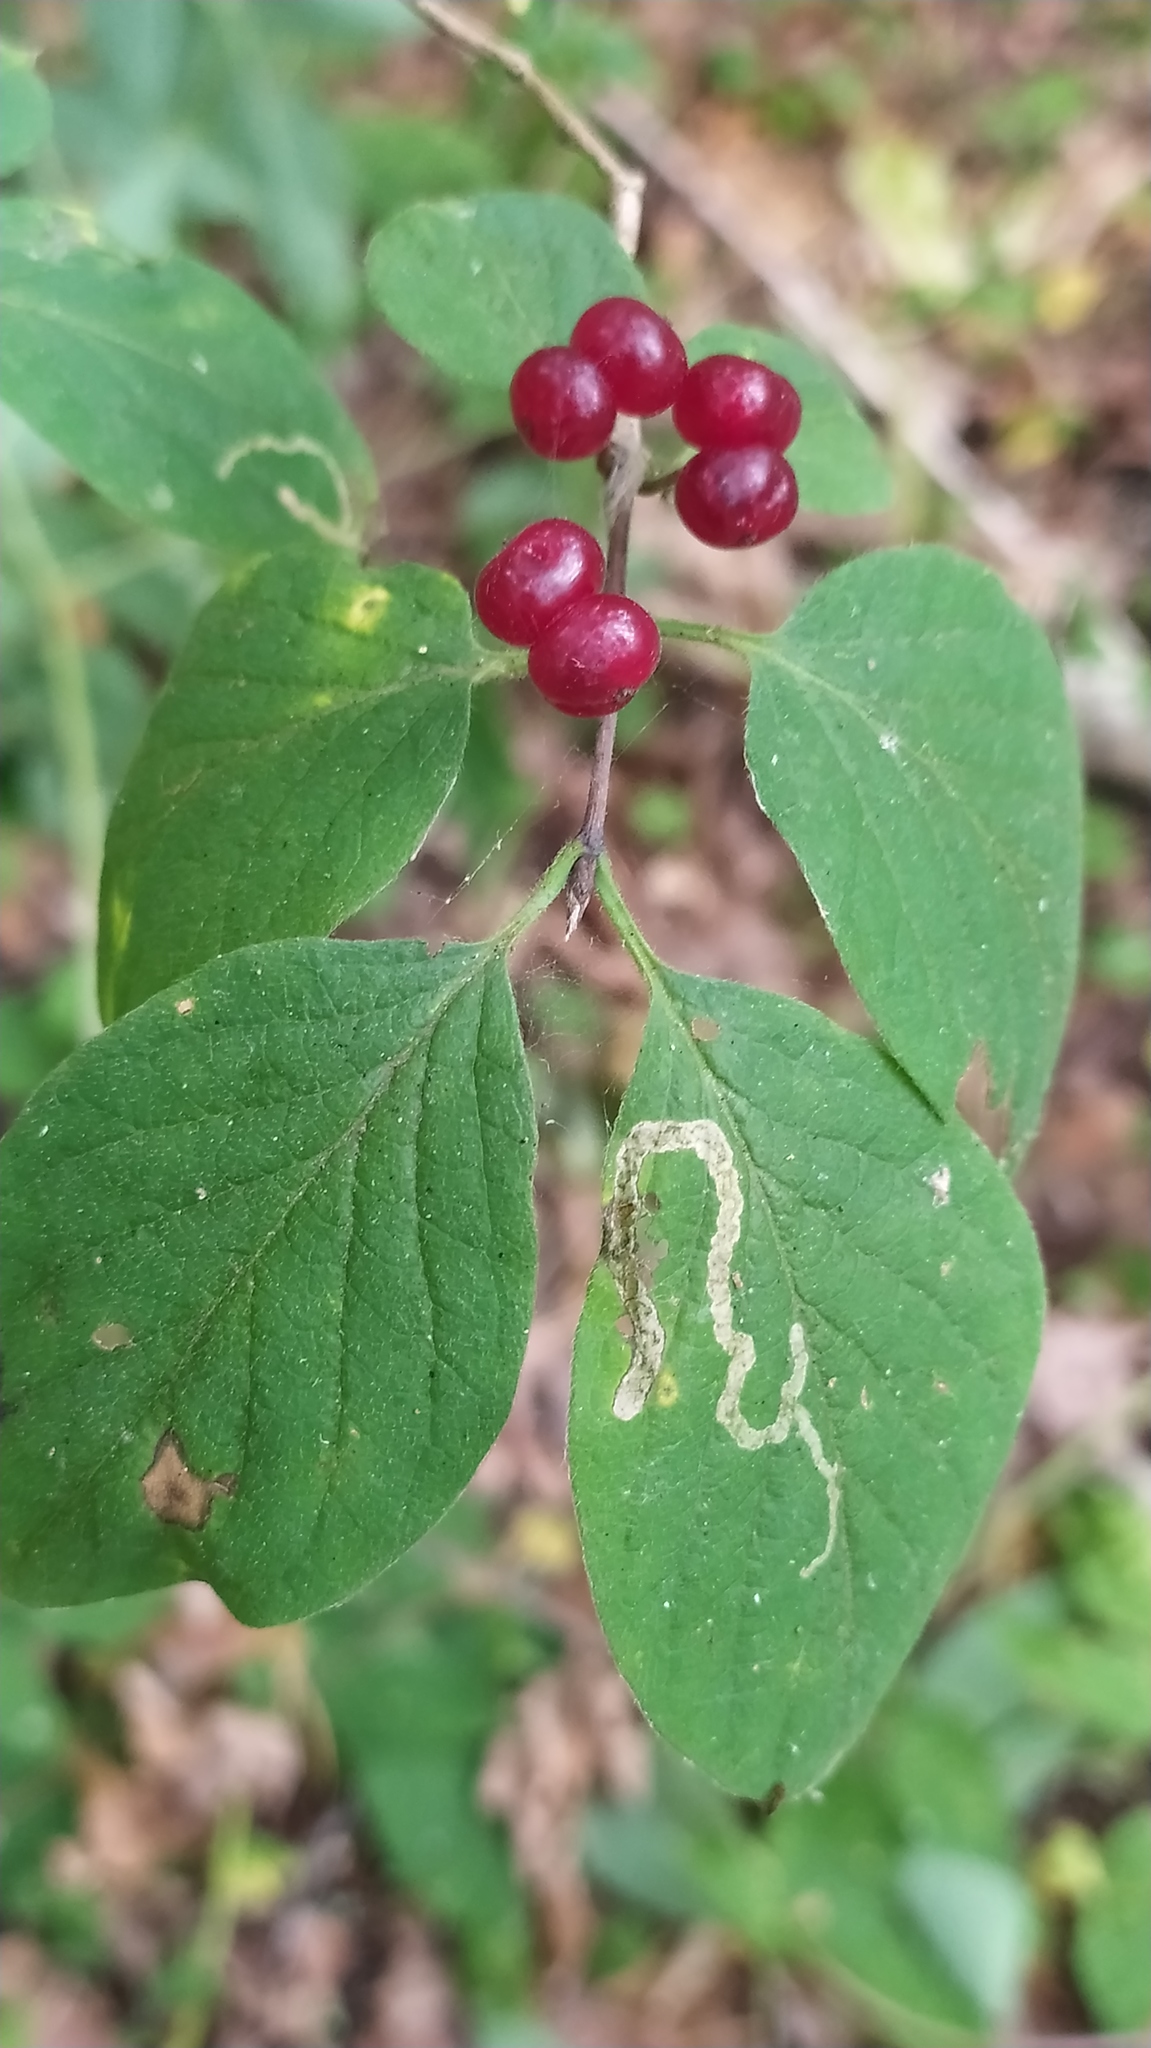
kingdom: Plantae
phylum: Tracheophyta
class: Magnoliopsida
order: Dipsacales
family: Caprifoliaceae
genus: Lonicera
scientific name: Lonicera xylosteum
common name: Fly honeysuckle
